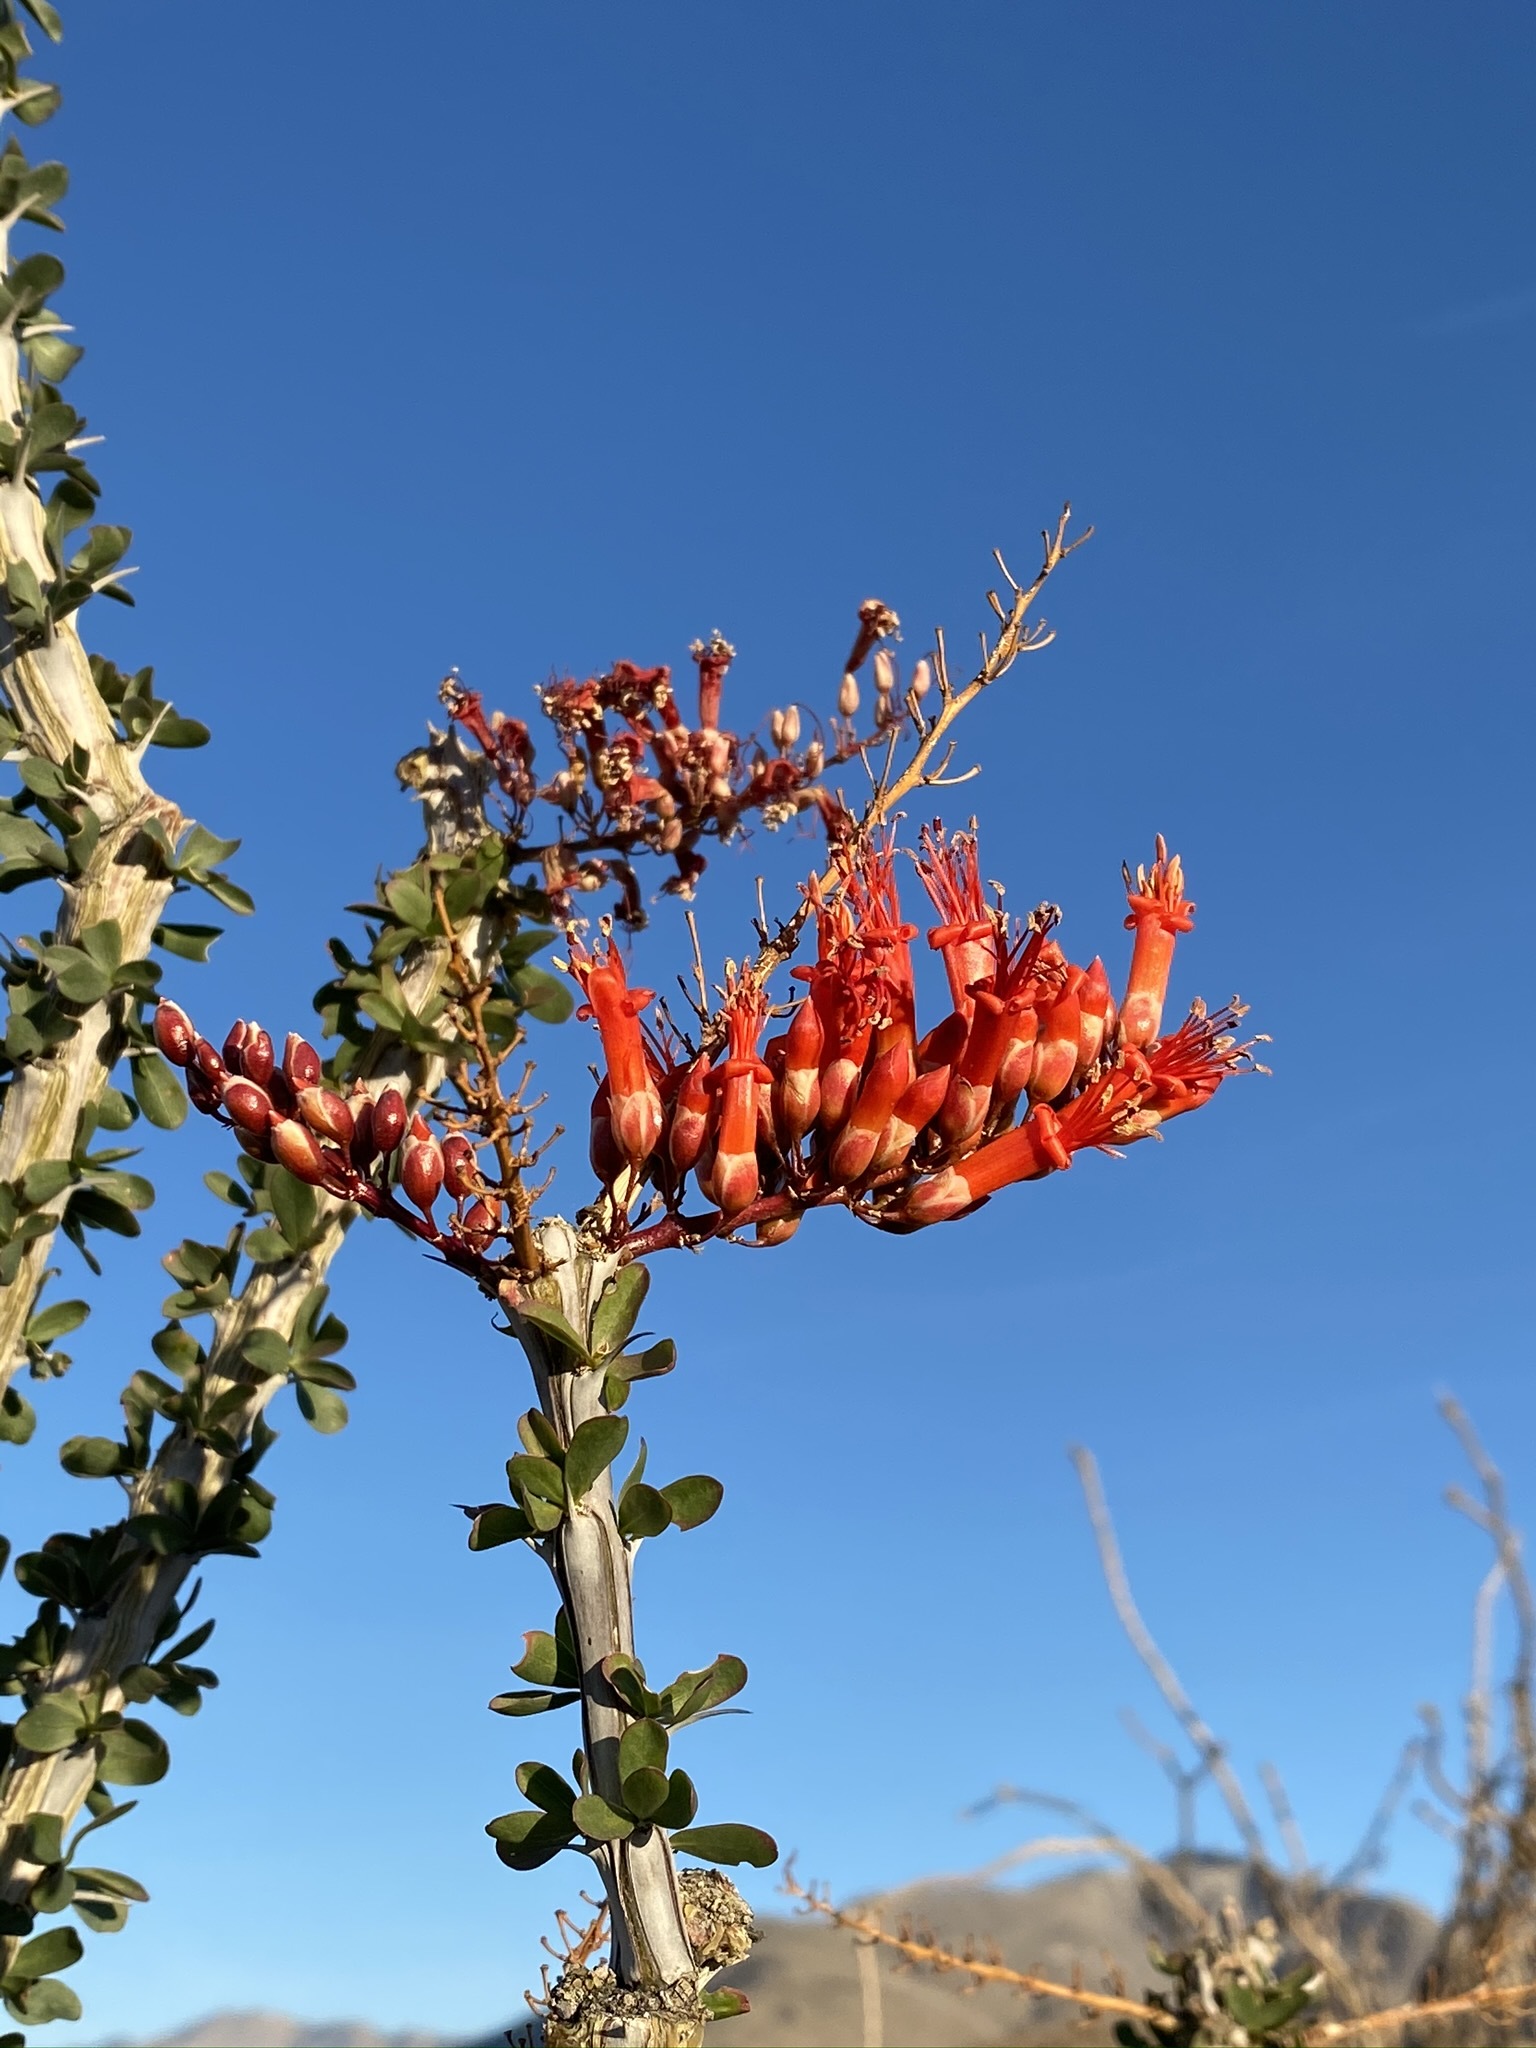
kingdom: Plantae
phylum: Tracheophyta
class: Magnoliopsida
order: Ericales
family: Fouquieriaceae
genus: Fouquieria
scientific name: Fouquieria splendens
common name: Vine-cactus
